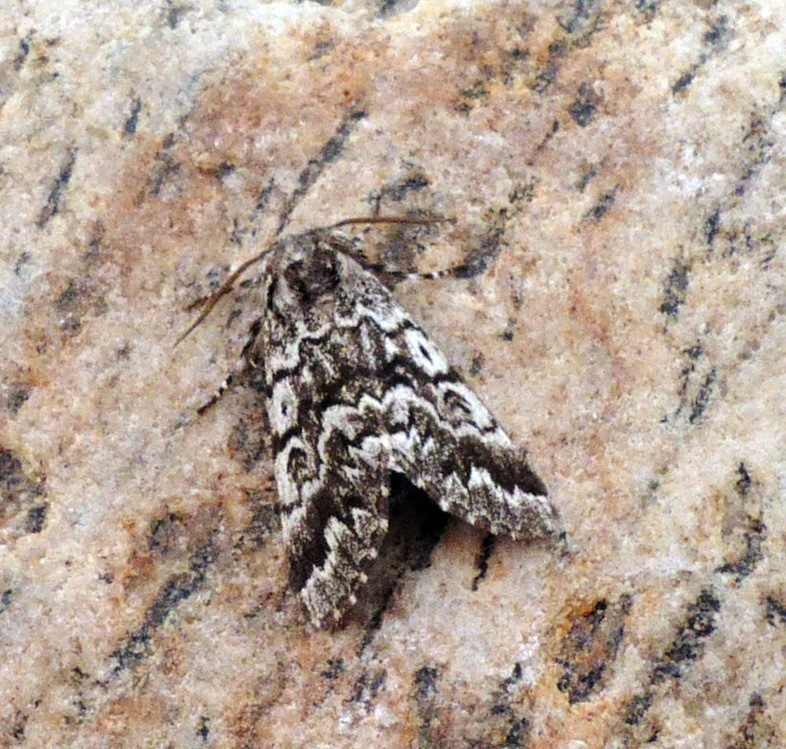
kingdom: Animalia
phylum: Arthropoda
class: Insecta
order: Lepidoptera
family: Noctuidae
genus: Panthea
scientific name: Panthea acronyctoides
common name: Black zigzag moth
